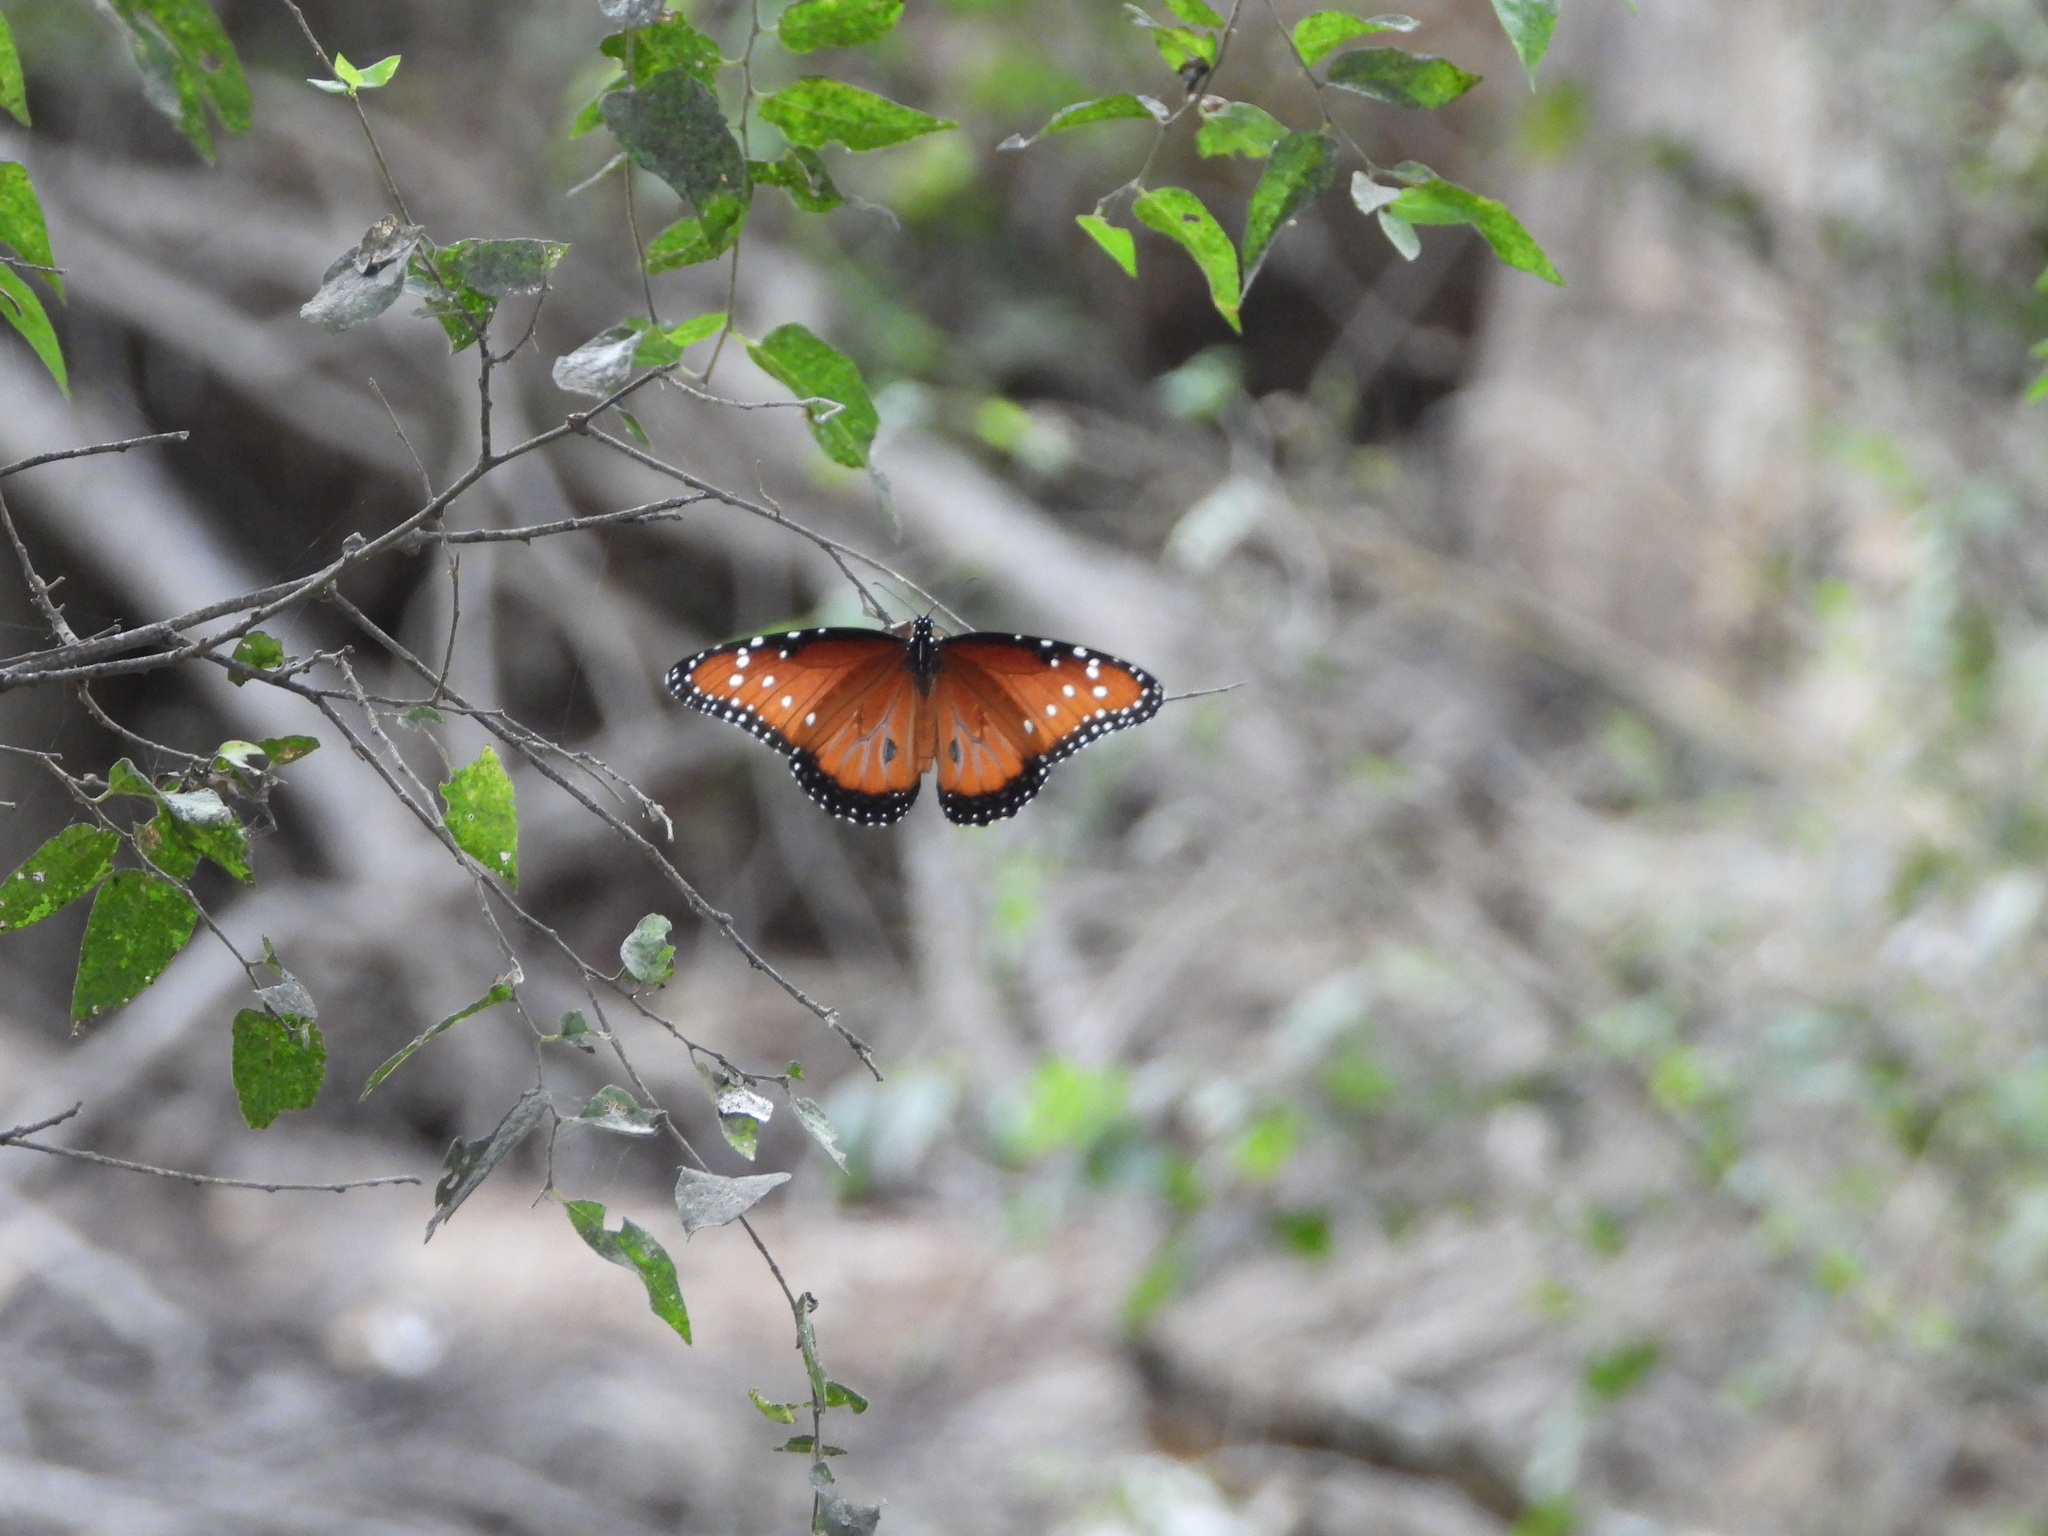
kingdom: Animalia
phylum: Arthropoda
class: Insecta
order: Lepidoptera
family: Nymphalidae
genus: Danaus
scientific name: Danaus gilippus
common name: Queen
